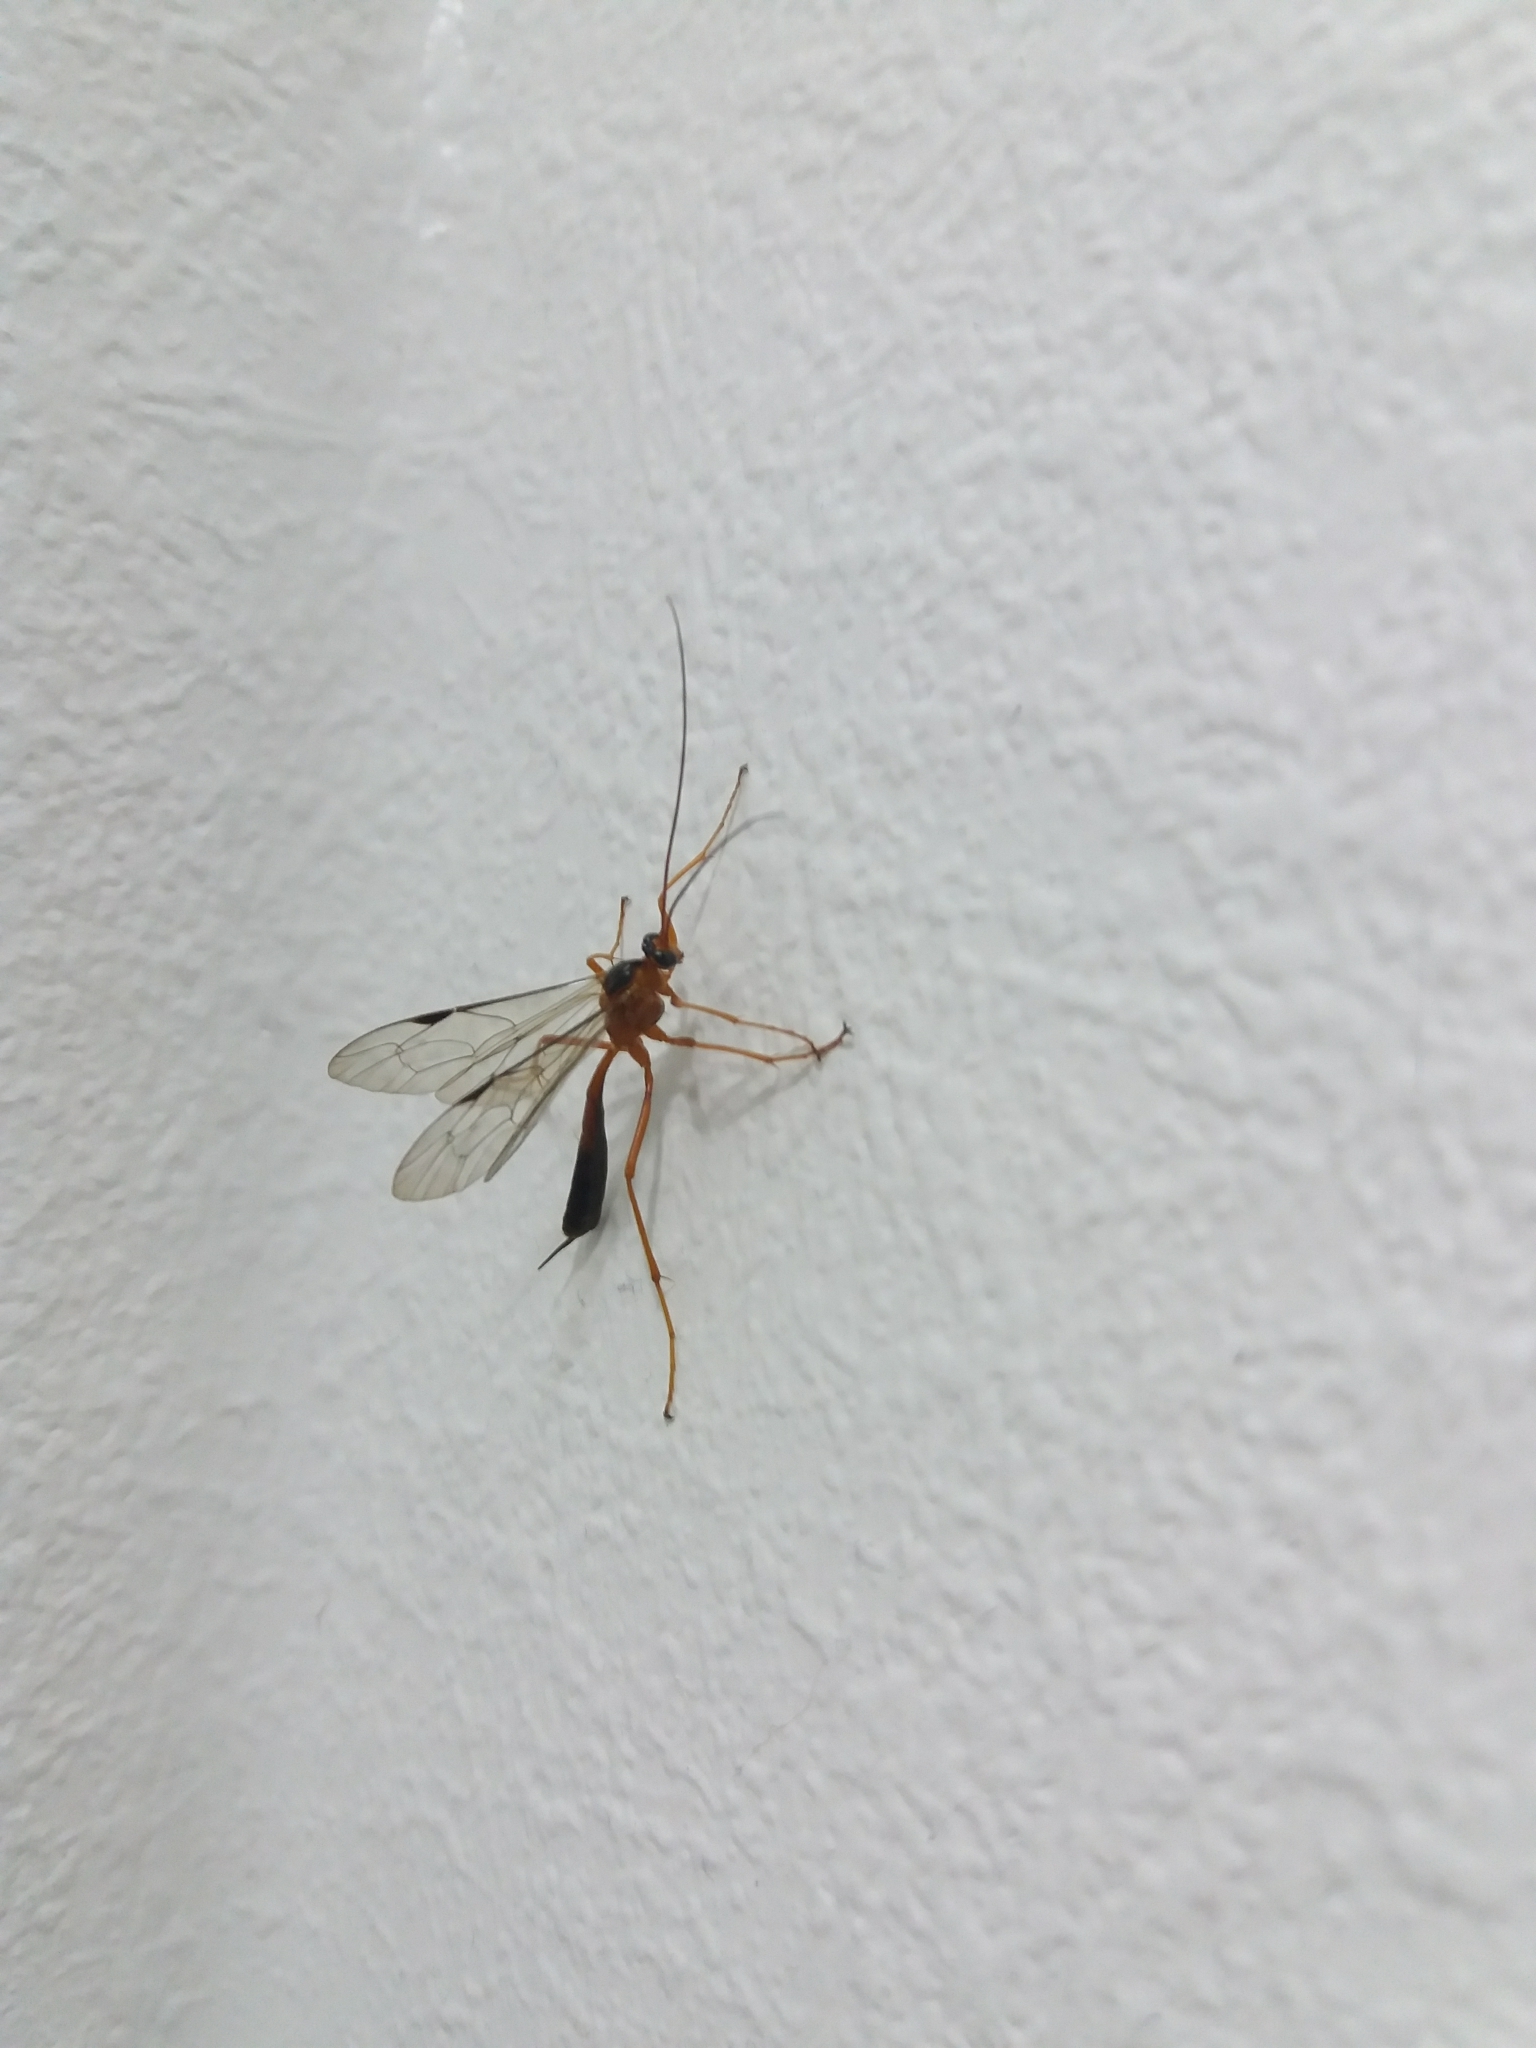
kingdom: Animalia
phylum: Arthropoda
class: Insecta
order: Hymenoptera
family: Ichneumonidae
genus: Netelia
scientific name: Netelia ephippiata
